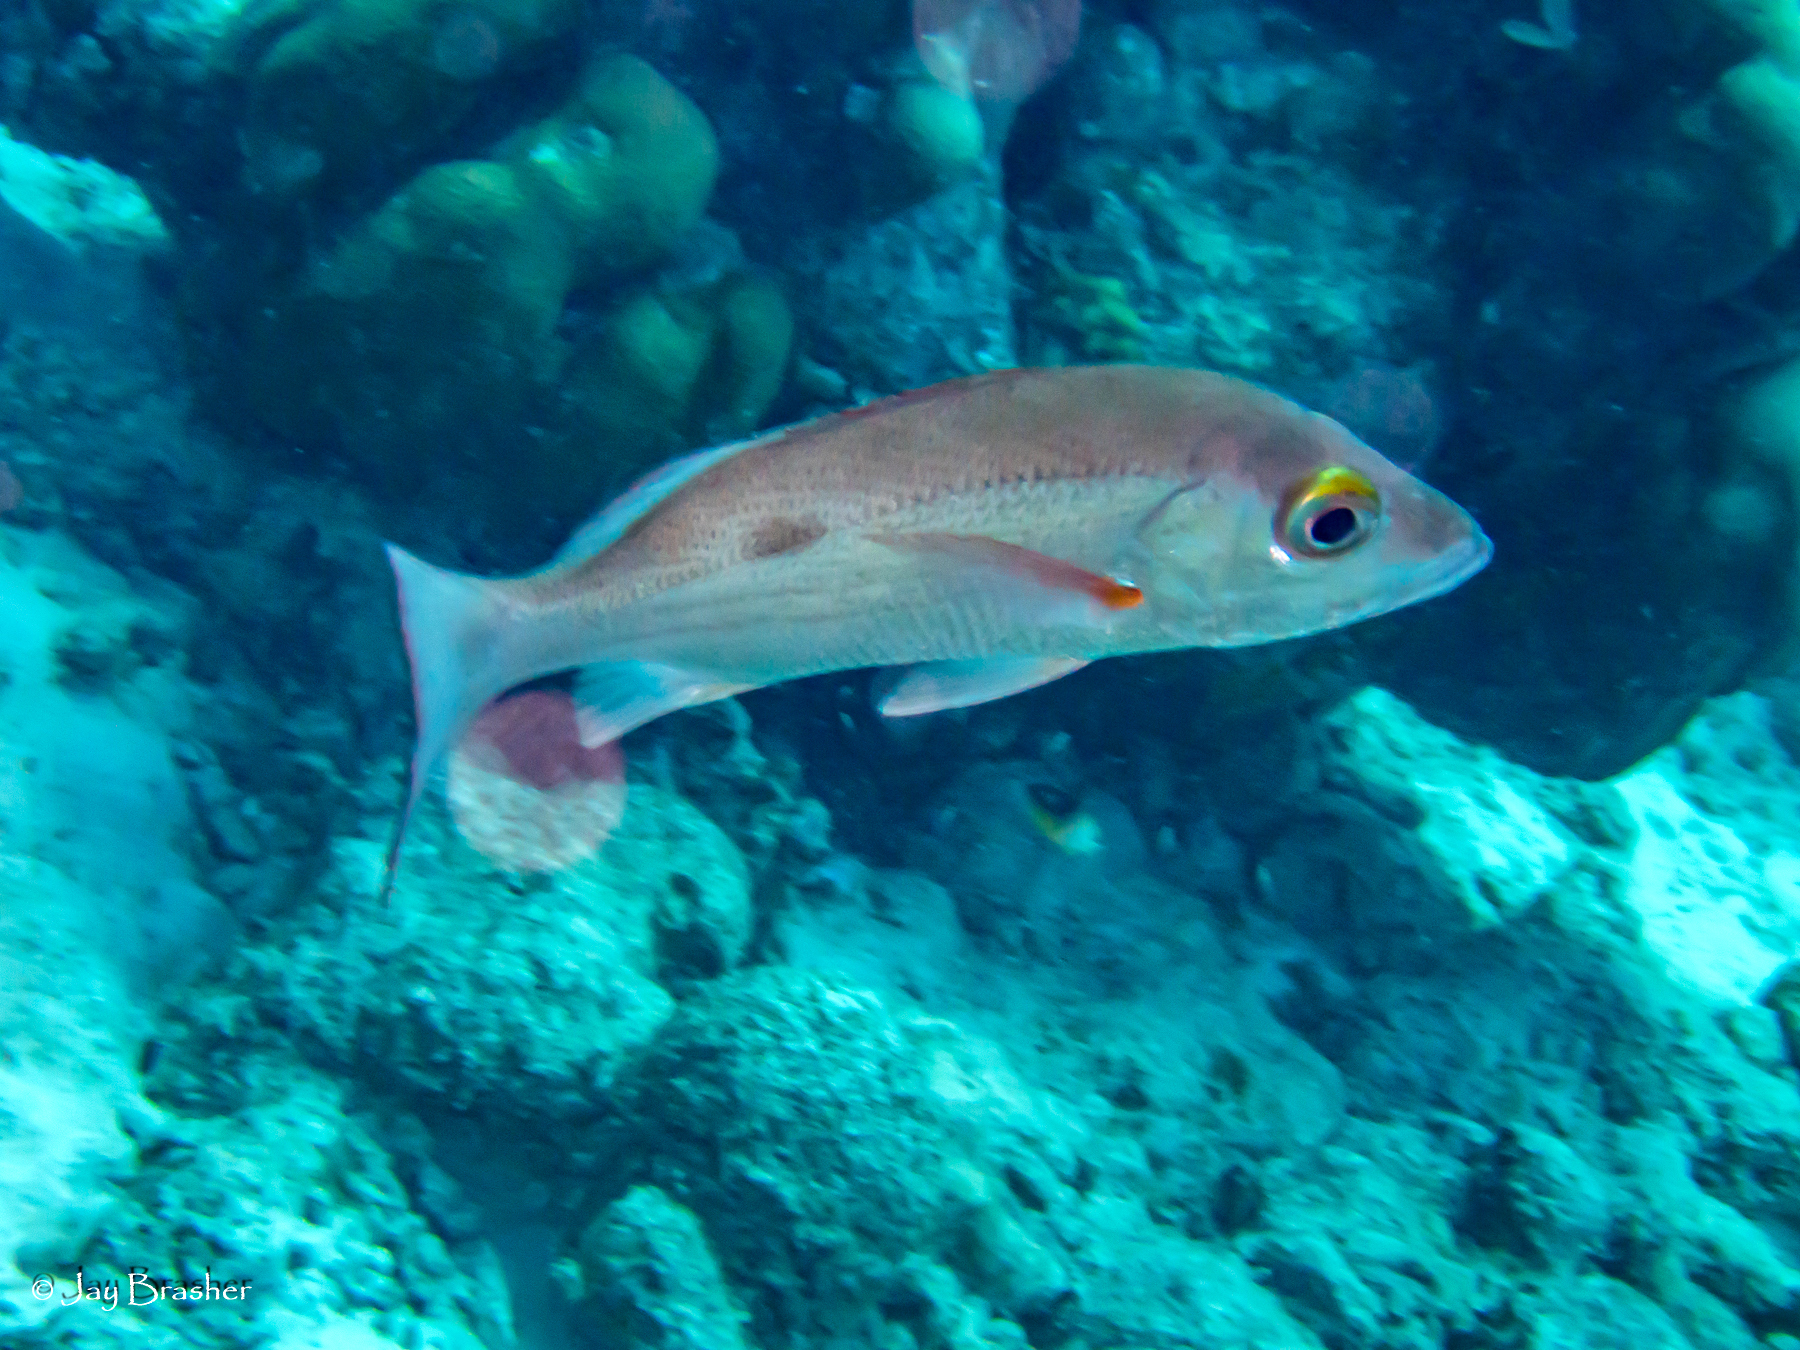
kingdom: Animalia
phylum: Chordata
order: Perciformes
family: Lutjanidae
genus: Lutjanus
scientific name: Lutjanus mahogoni
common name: Spot snapper
